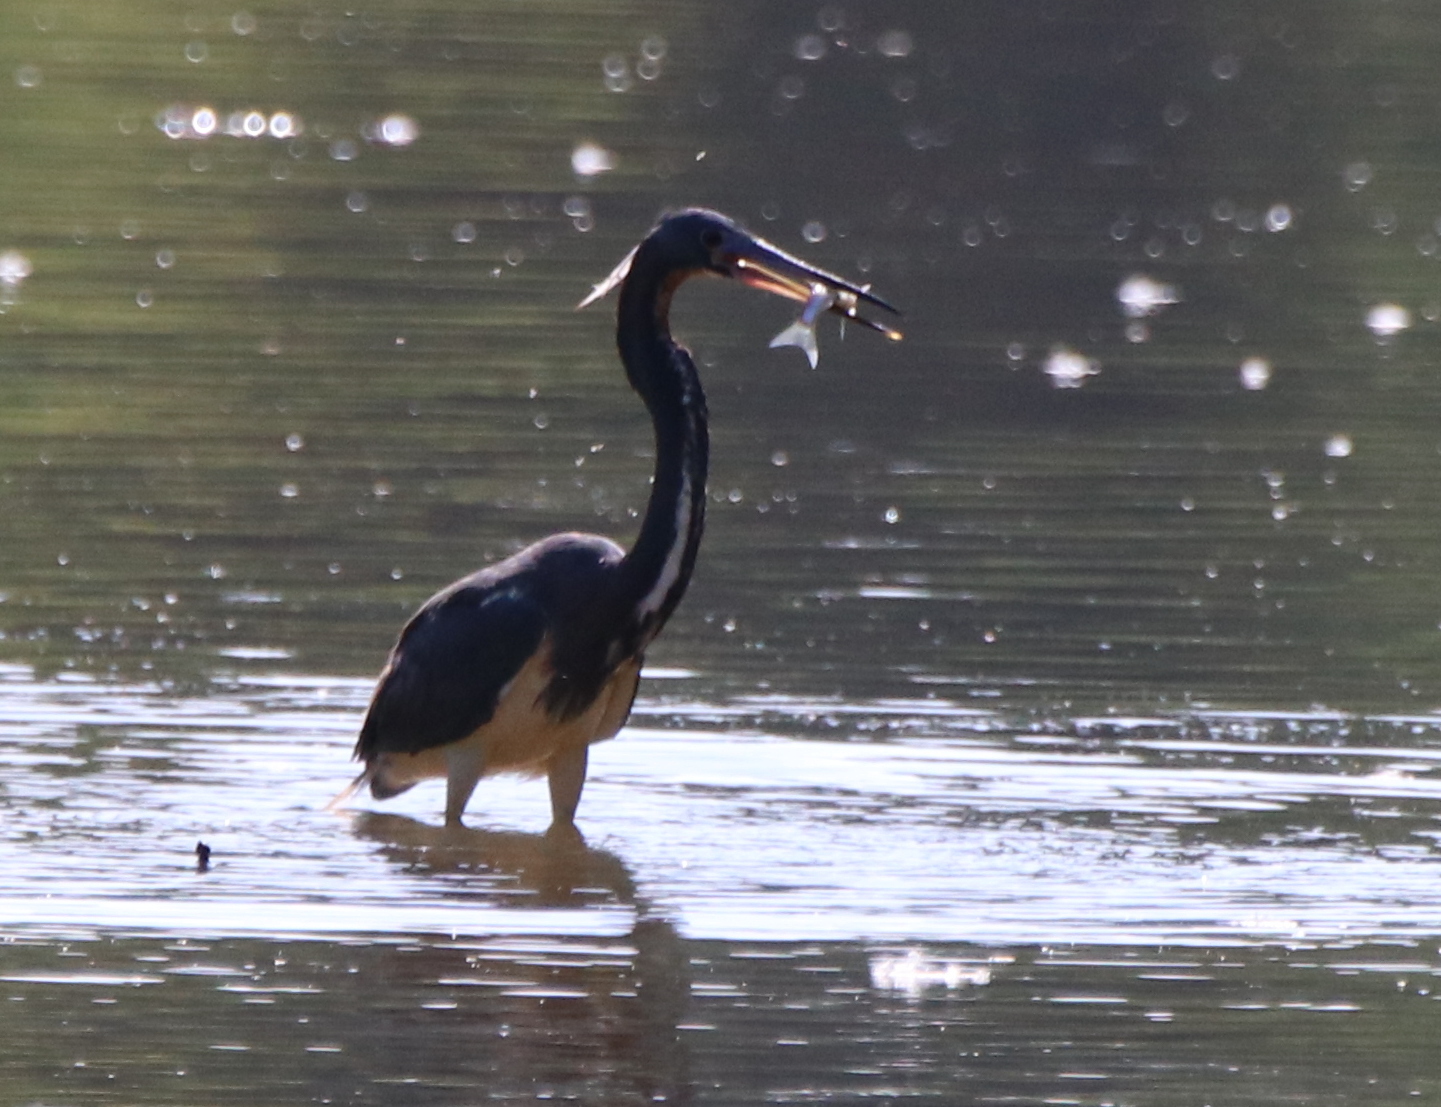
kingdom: Animalia
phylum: Chordata
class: Aves
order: Pelecaniformes
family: Ardeidae
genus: Egretta
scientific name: Egretta tricolor
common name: Tricolored heron
